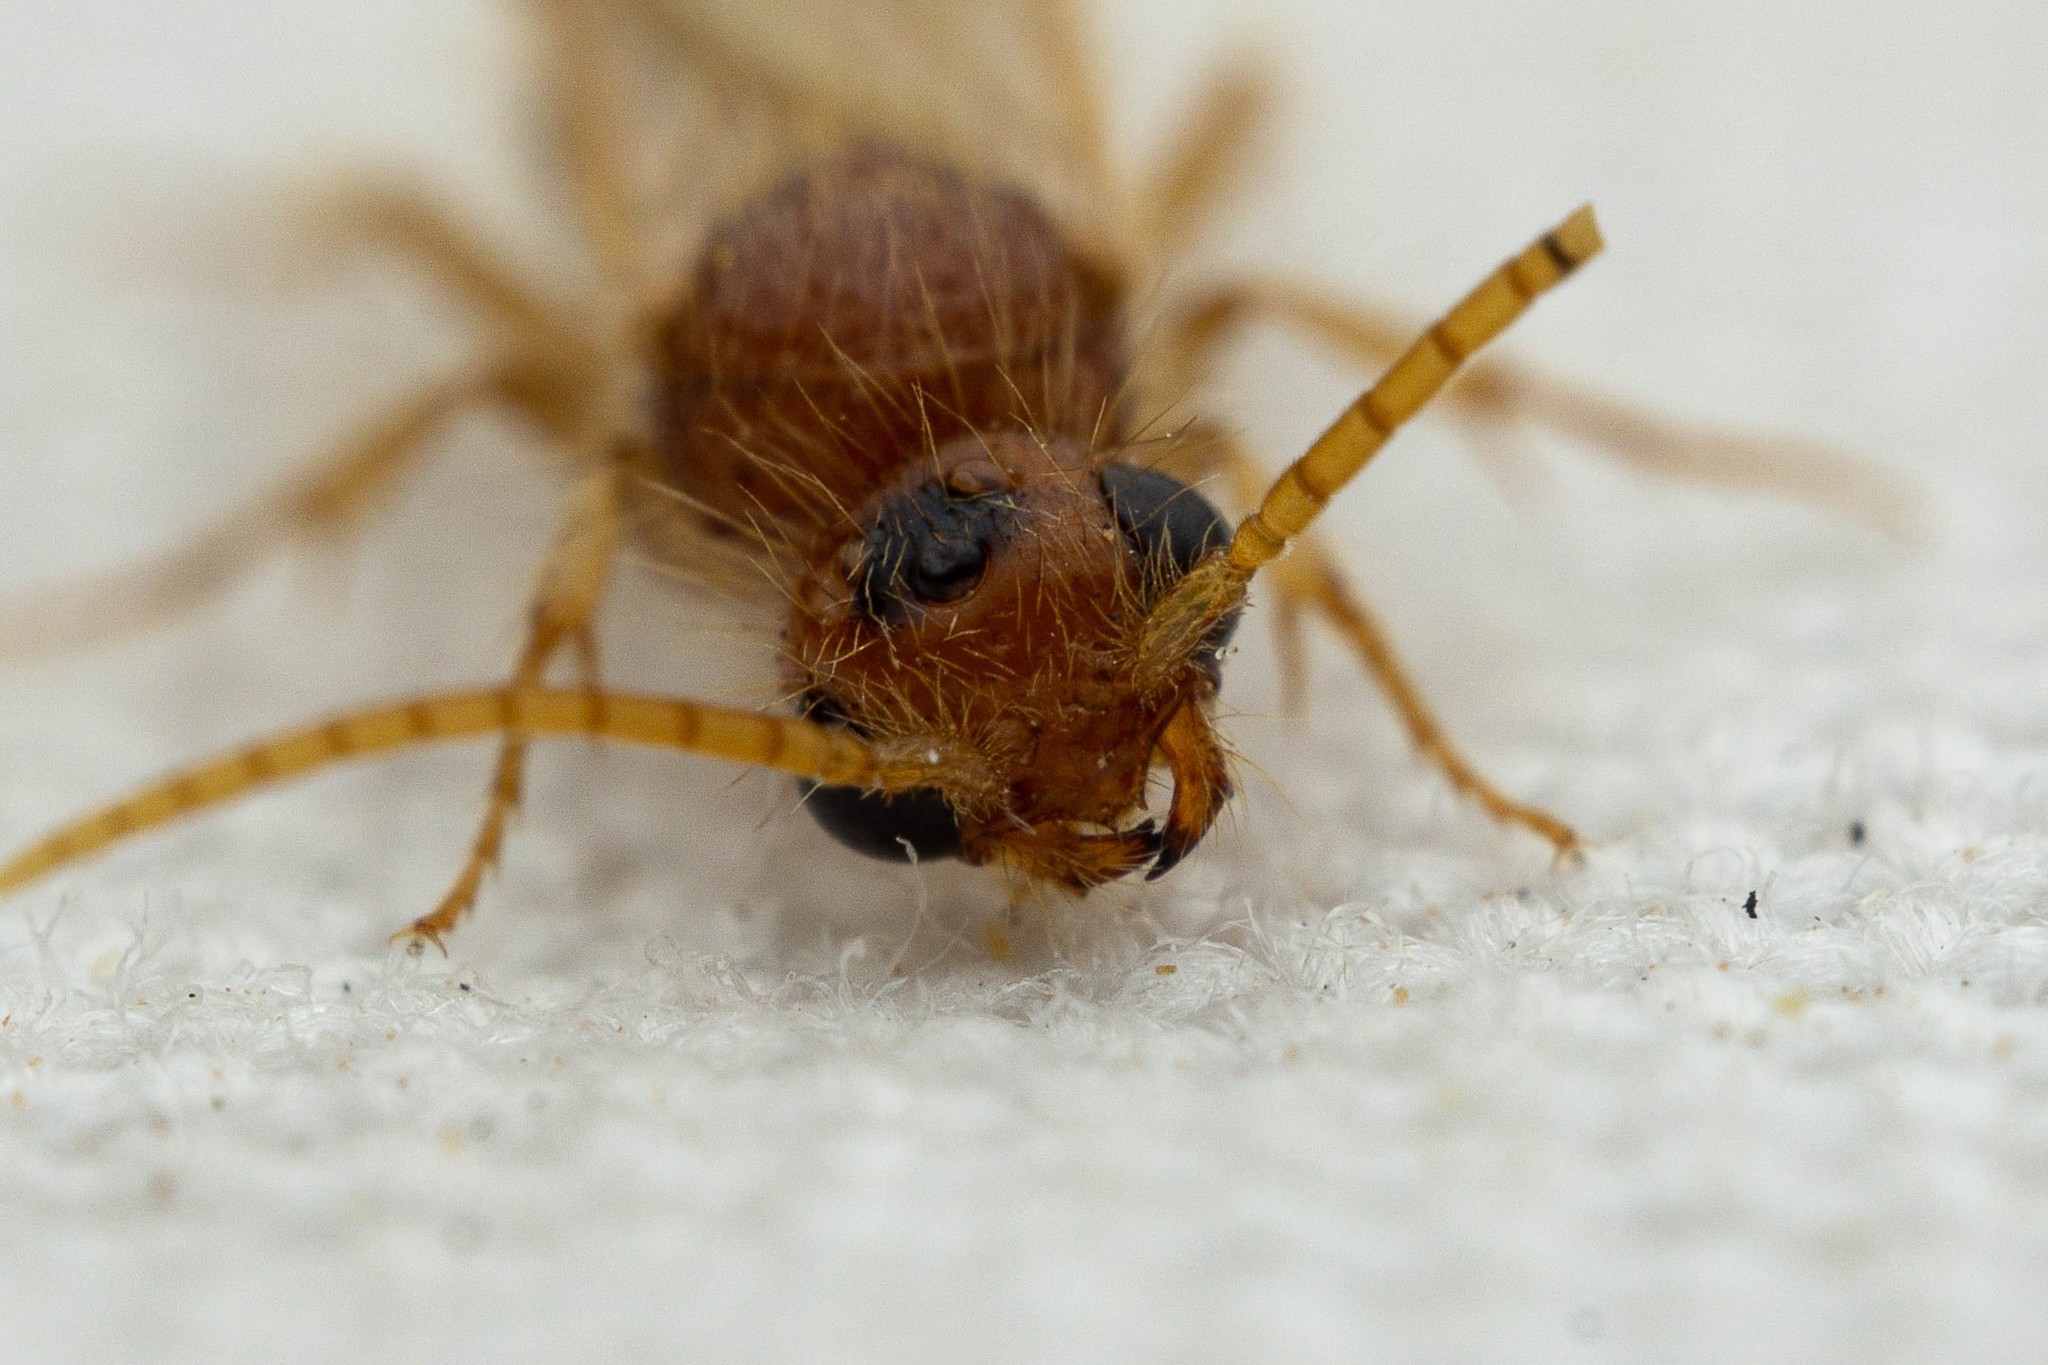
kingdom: Animalia
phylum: Arthropoda
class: Insecta
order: Hymenoptera
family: Mutillidae
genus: Sphaeropthalma
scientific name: Sphaeropthalma yumaella
